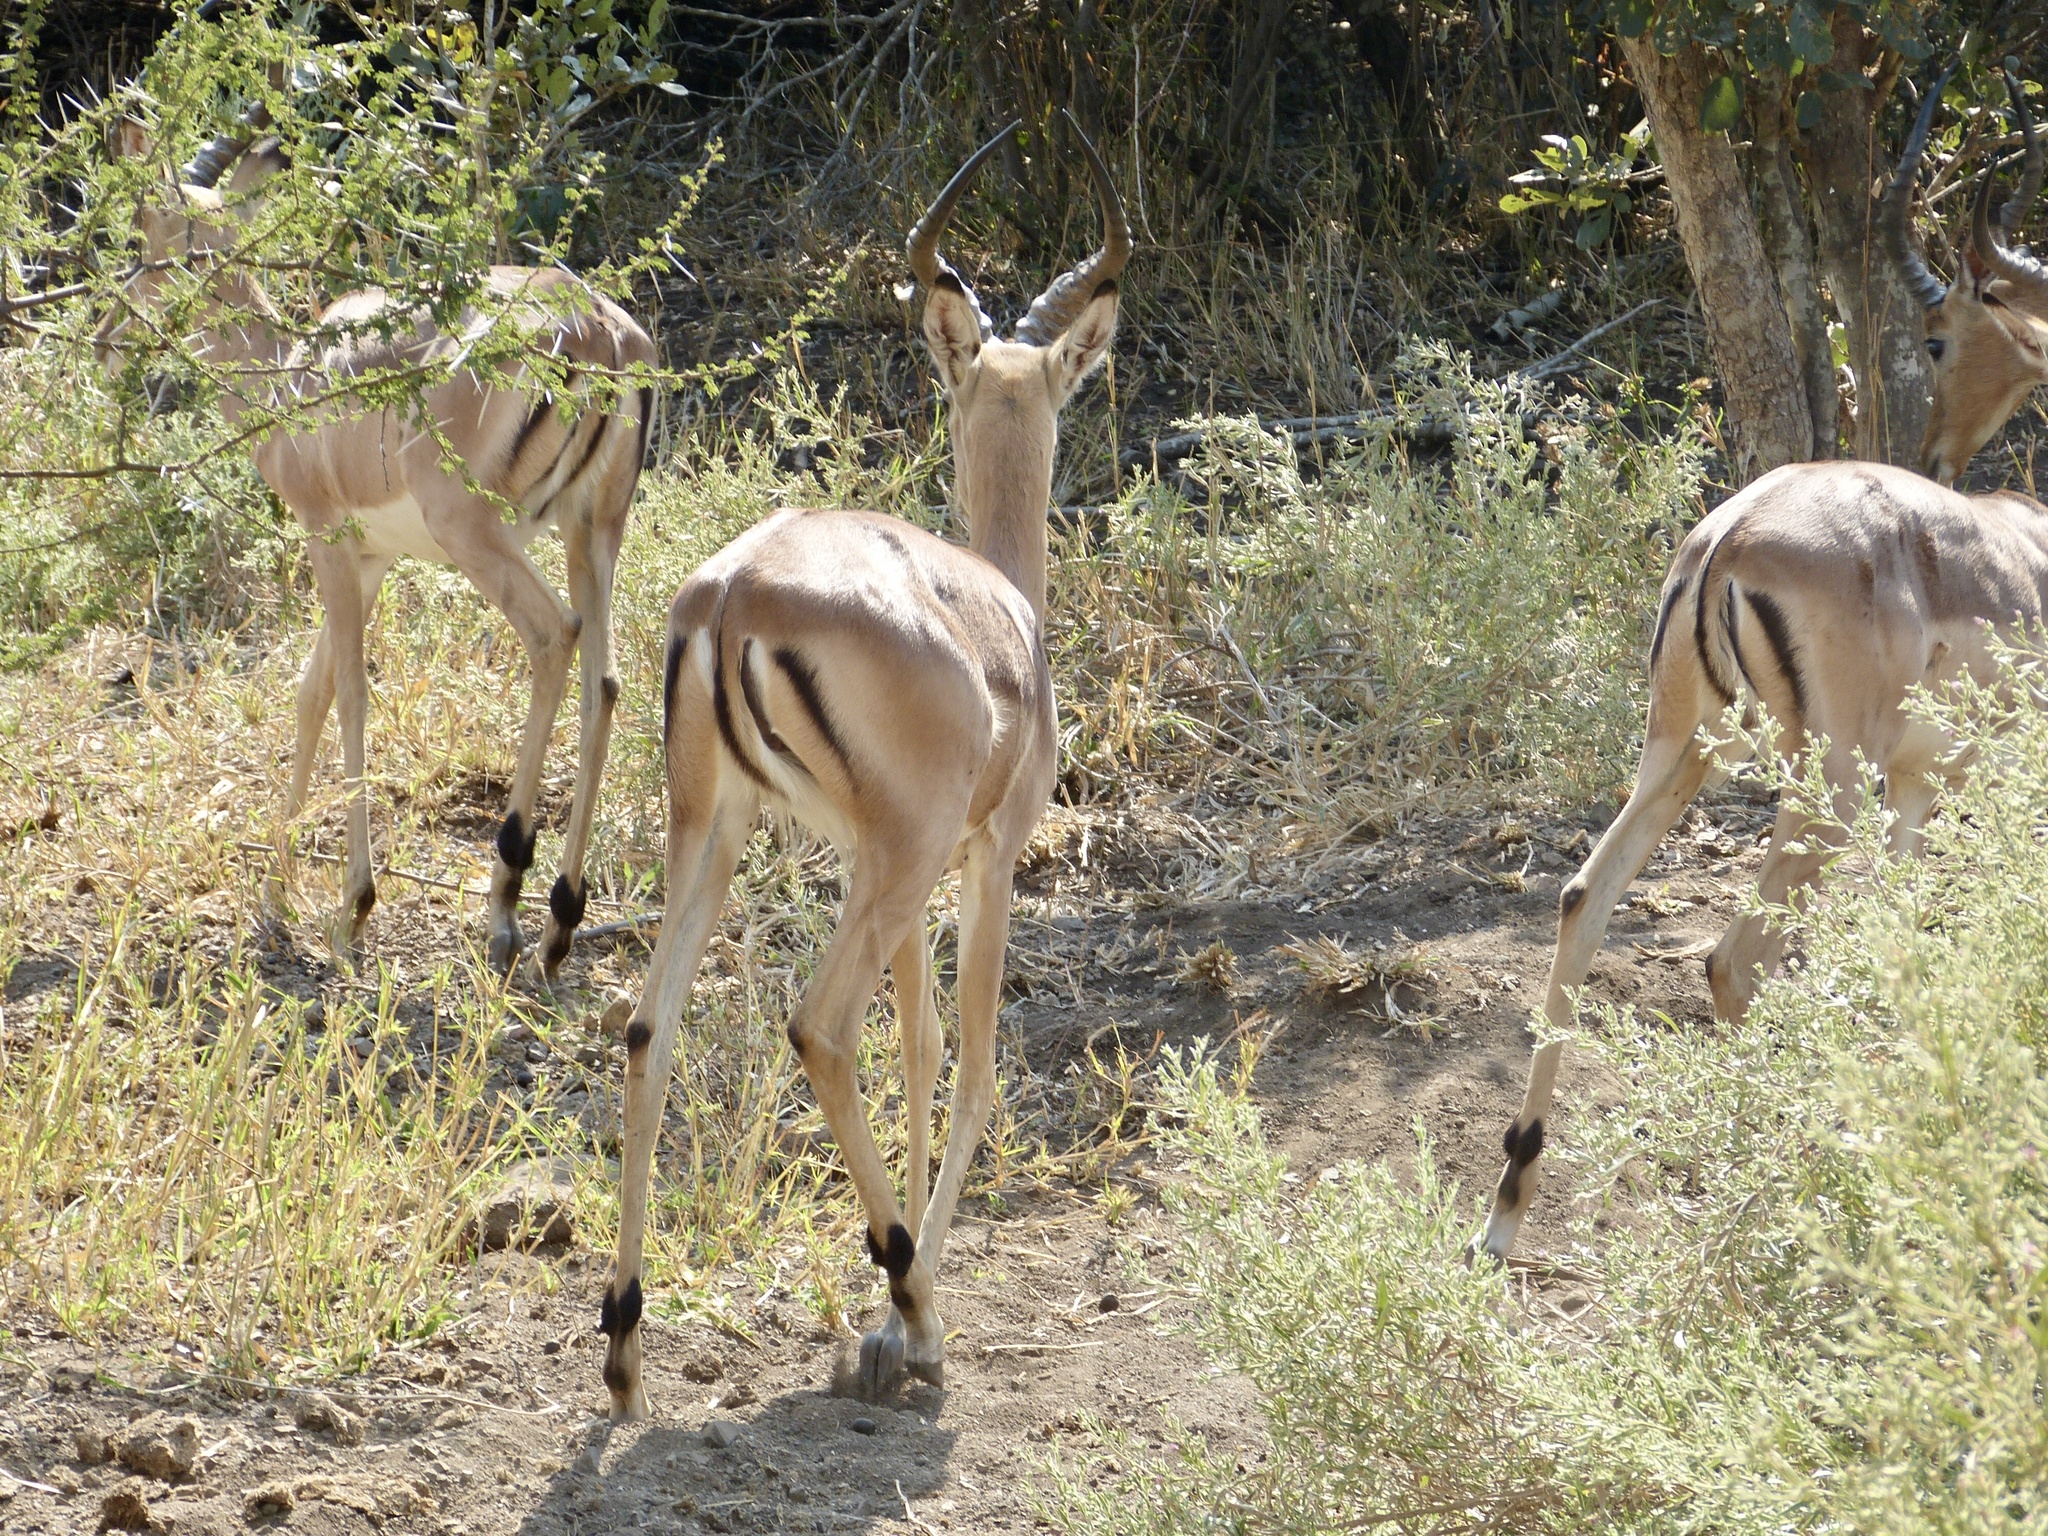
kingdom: Animalia
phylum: Chordata
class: Mammalia
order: Artiodactyla
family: Bovidae
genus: Aepyceros
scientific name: Aepyceros melampus
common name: Impala
